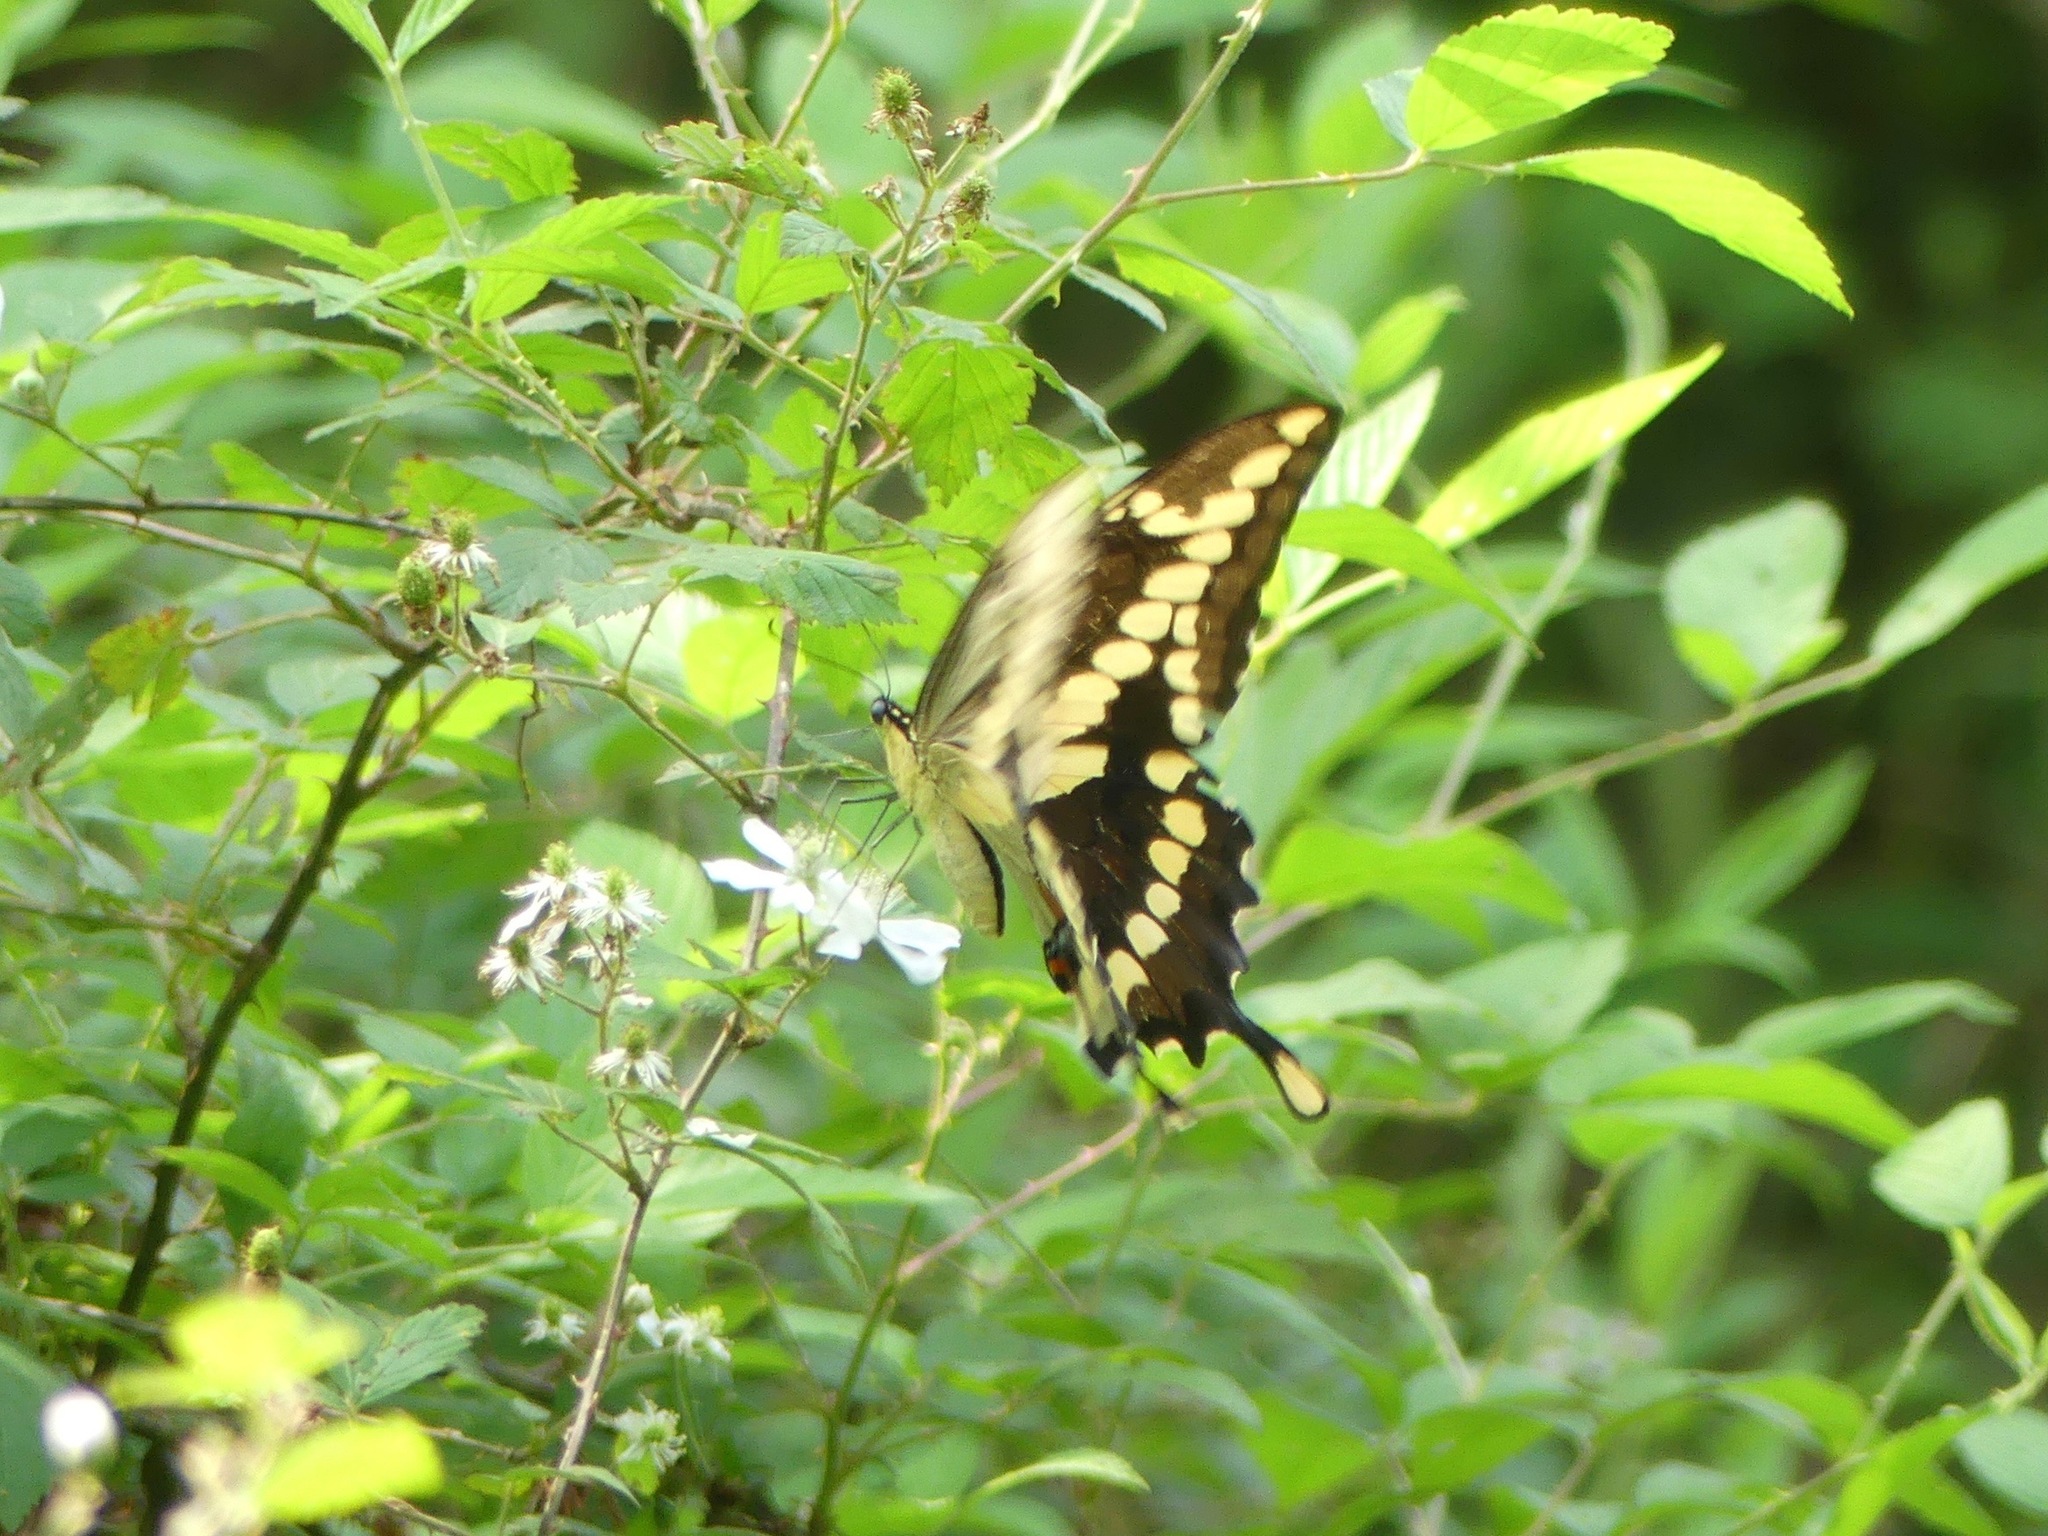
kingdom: Animalia
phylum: Arthropoda
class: Insecta
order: Lepidoptera
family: Papilionidae
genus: Papilio
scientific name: Papilio cresphontes
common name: Giant swallowtail
